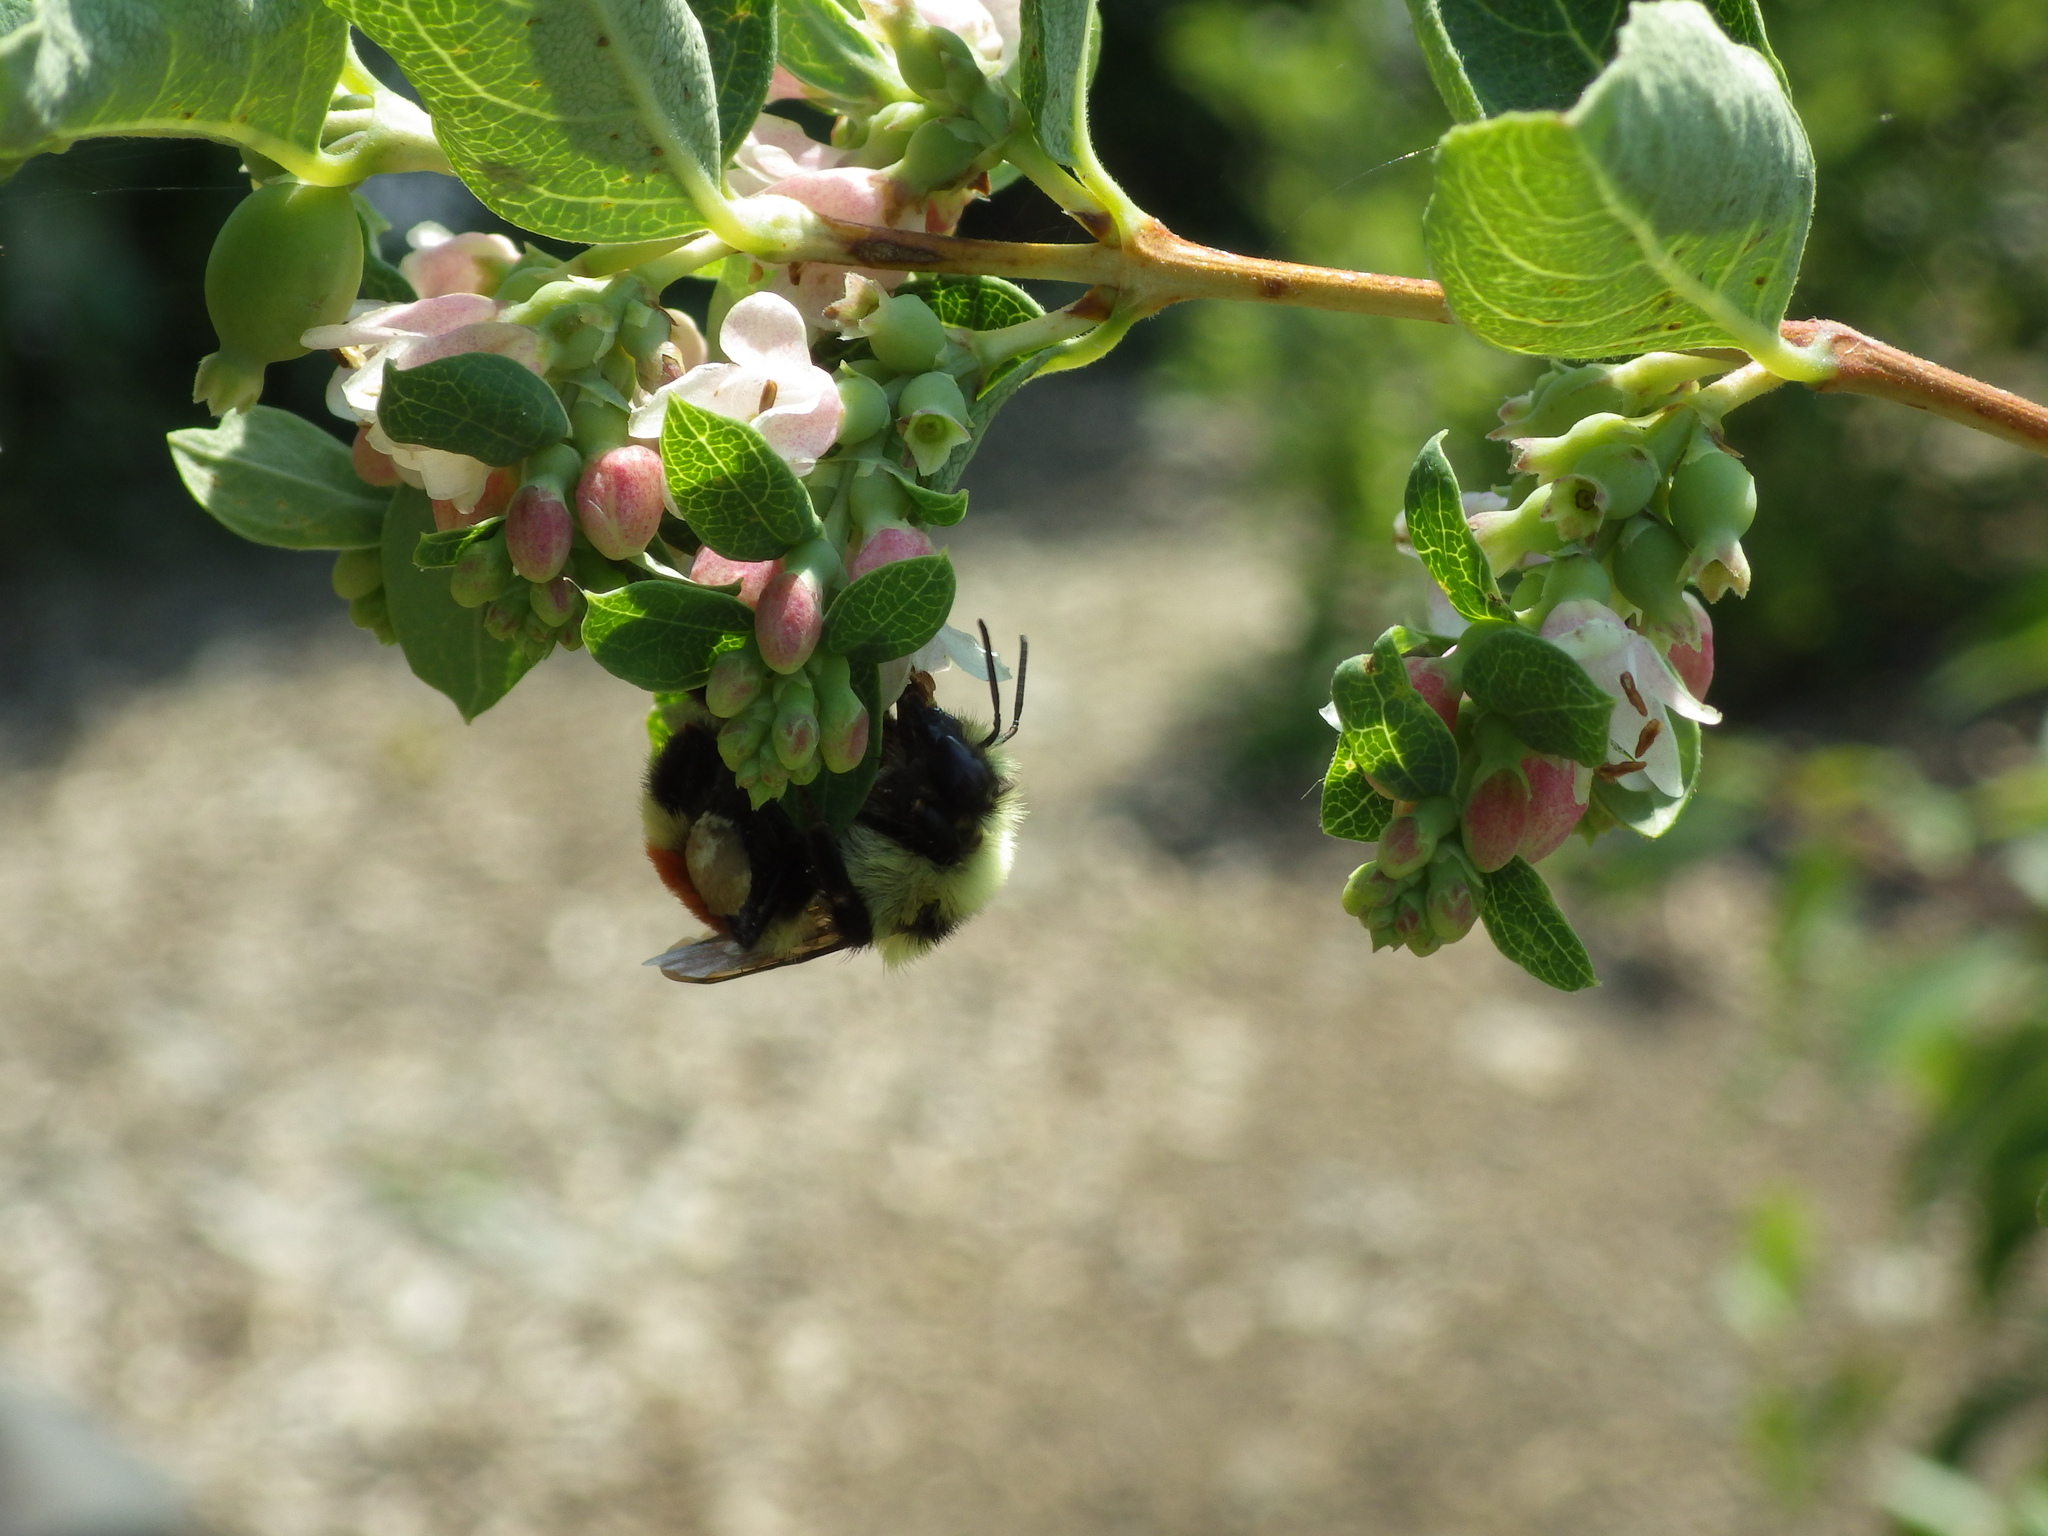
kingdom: Animalia
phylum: Arthropoda
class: Insecta
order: Hymenoptera
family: Apidae
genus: Bombus
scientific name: Bombus huntii
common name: Hunt bumble bee
